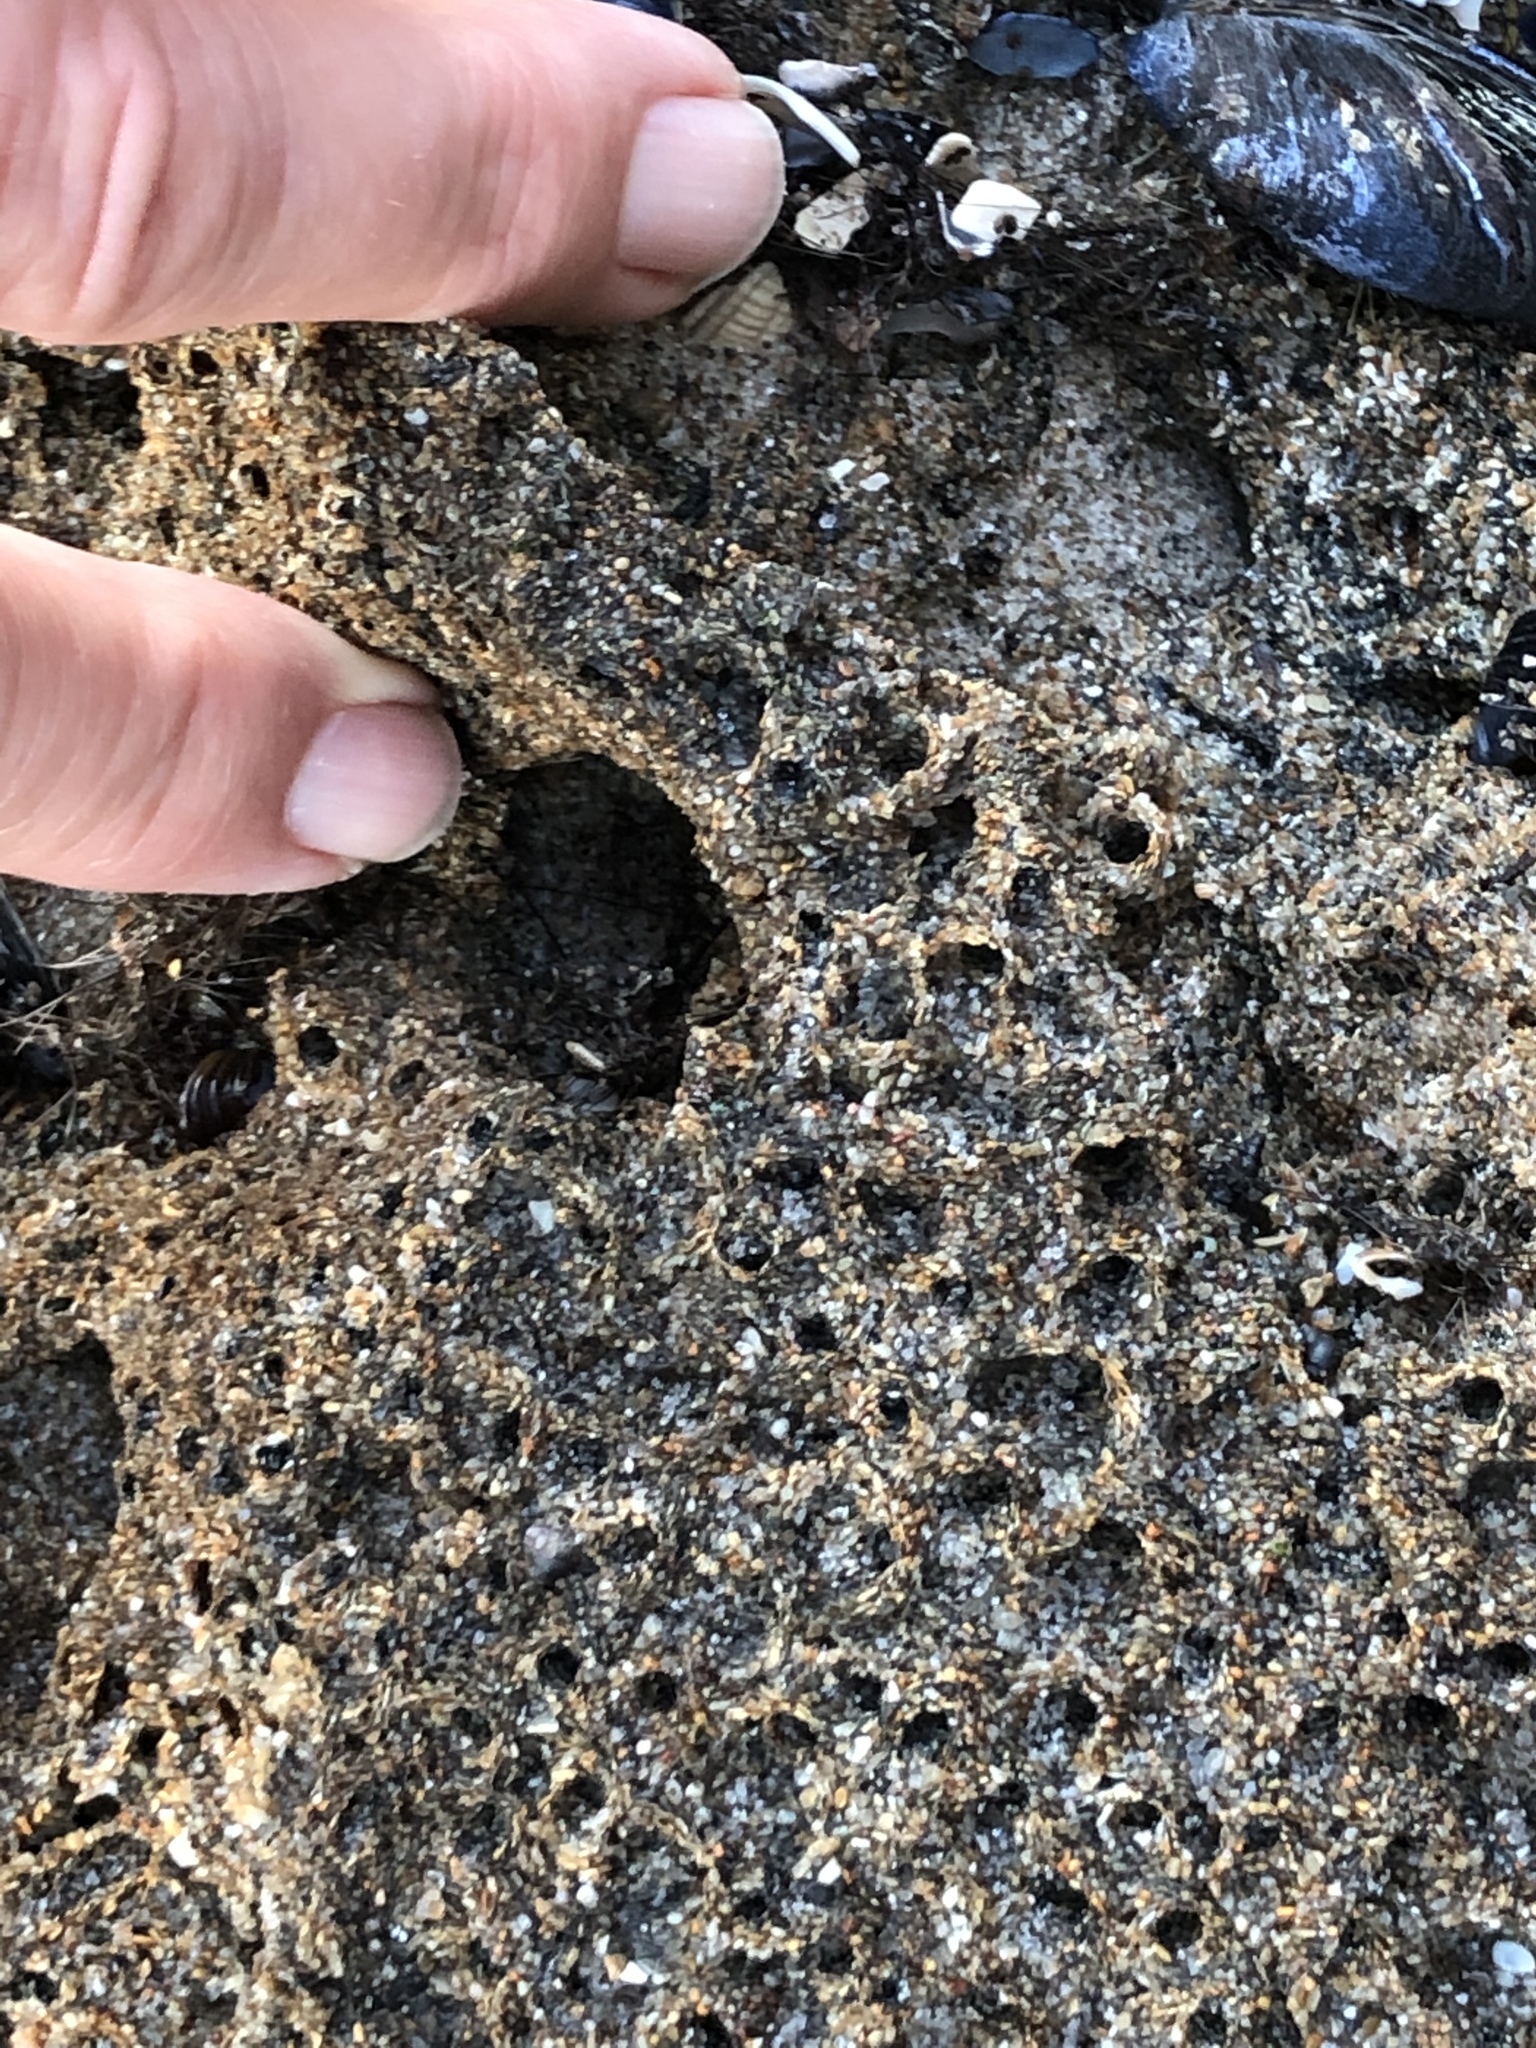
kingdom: Animalia
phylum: Annelida
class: Polychaeta
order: Sabellida
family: Sabellariidae
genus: Phragmatopoma
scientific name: Phragmatopoma californica
